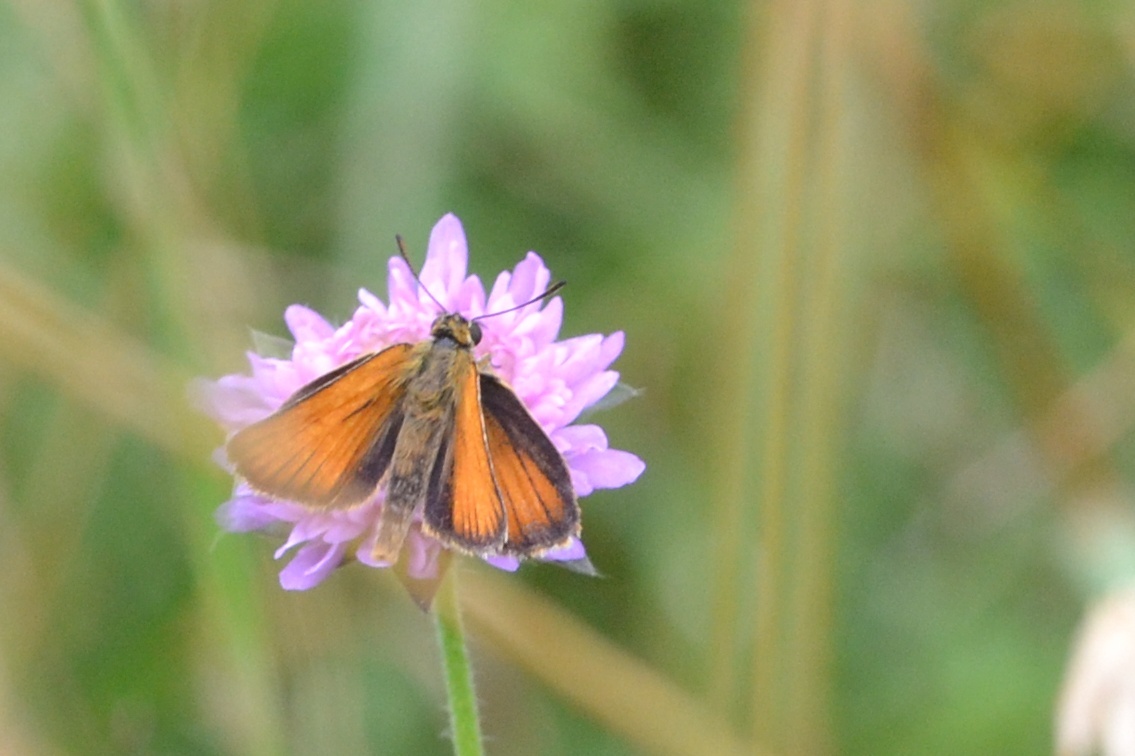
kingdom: Animalia
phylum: Arthropoda
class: Insecta
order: Lepidoptera
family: Hesperiidae
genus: Thymelicus
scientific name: Thymelicus lineola
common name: Essex skipper
